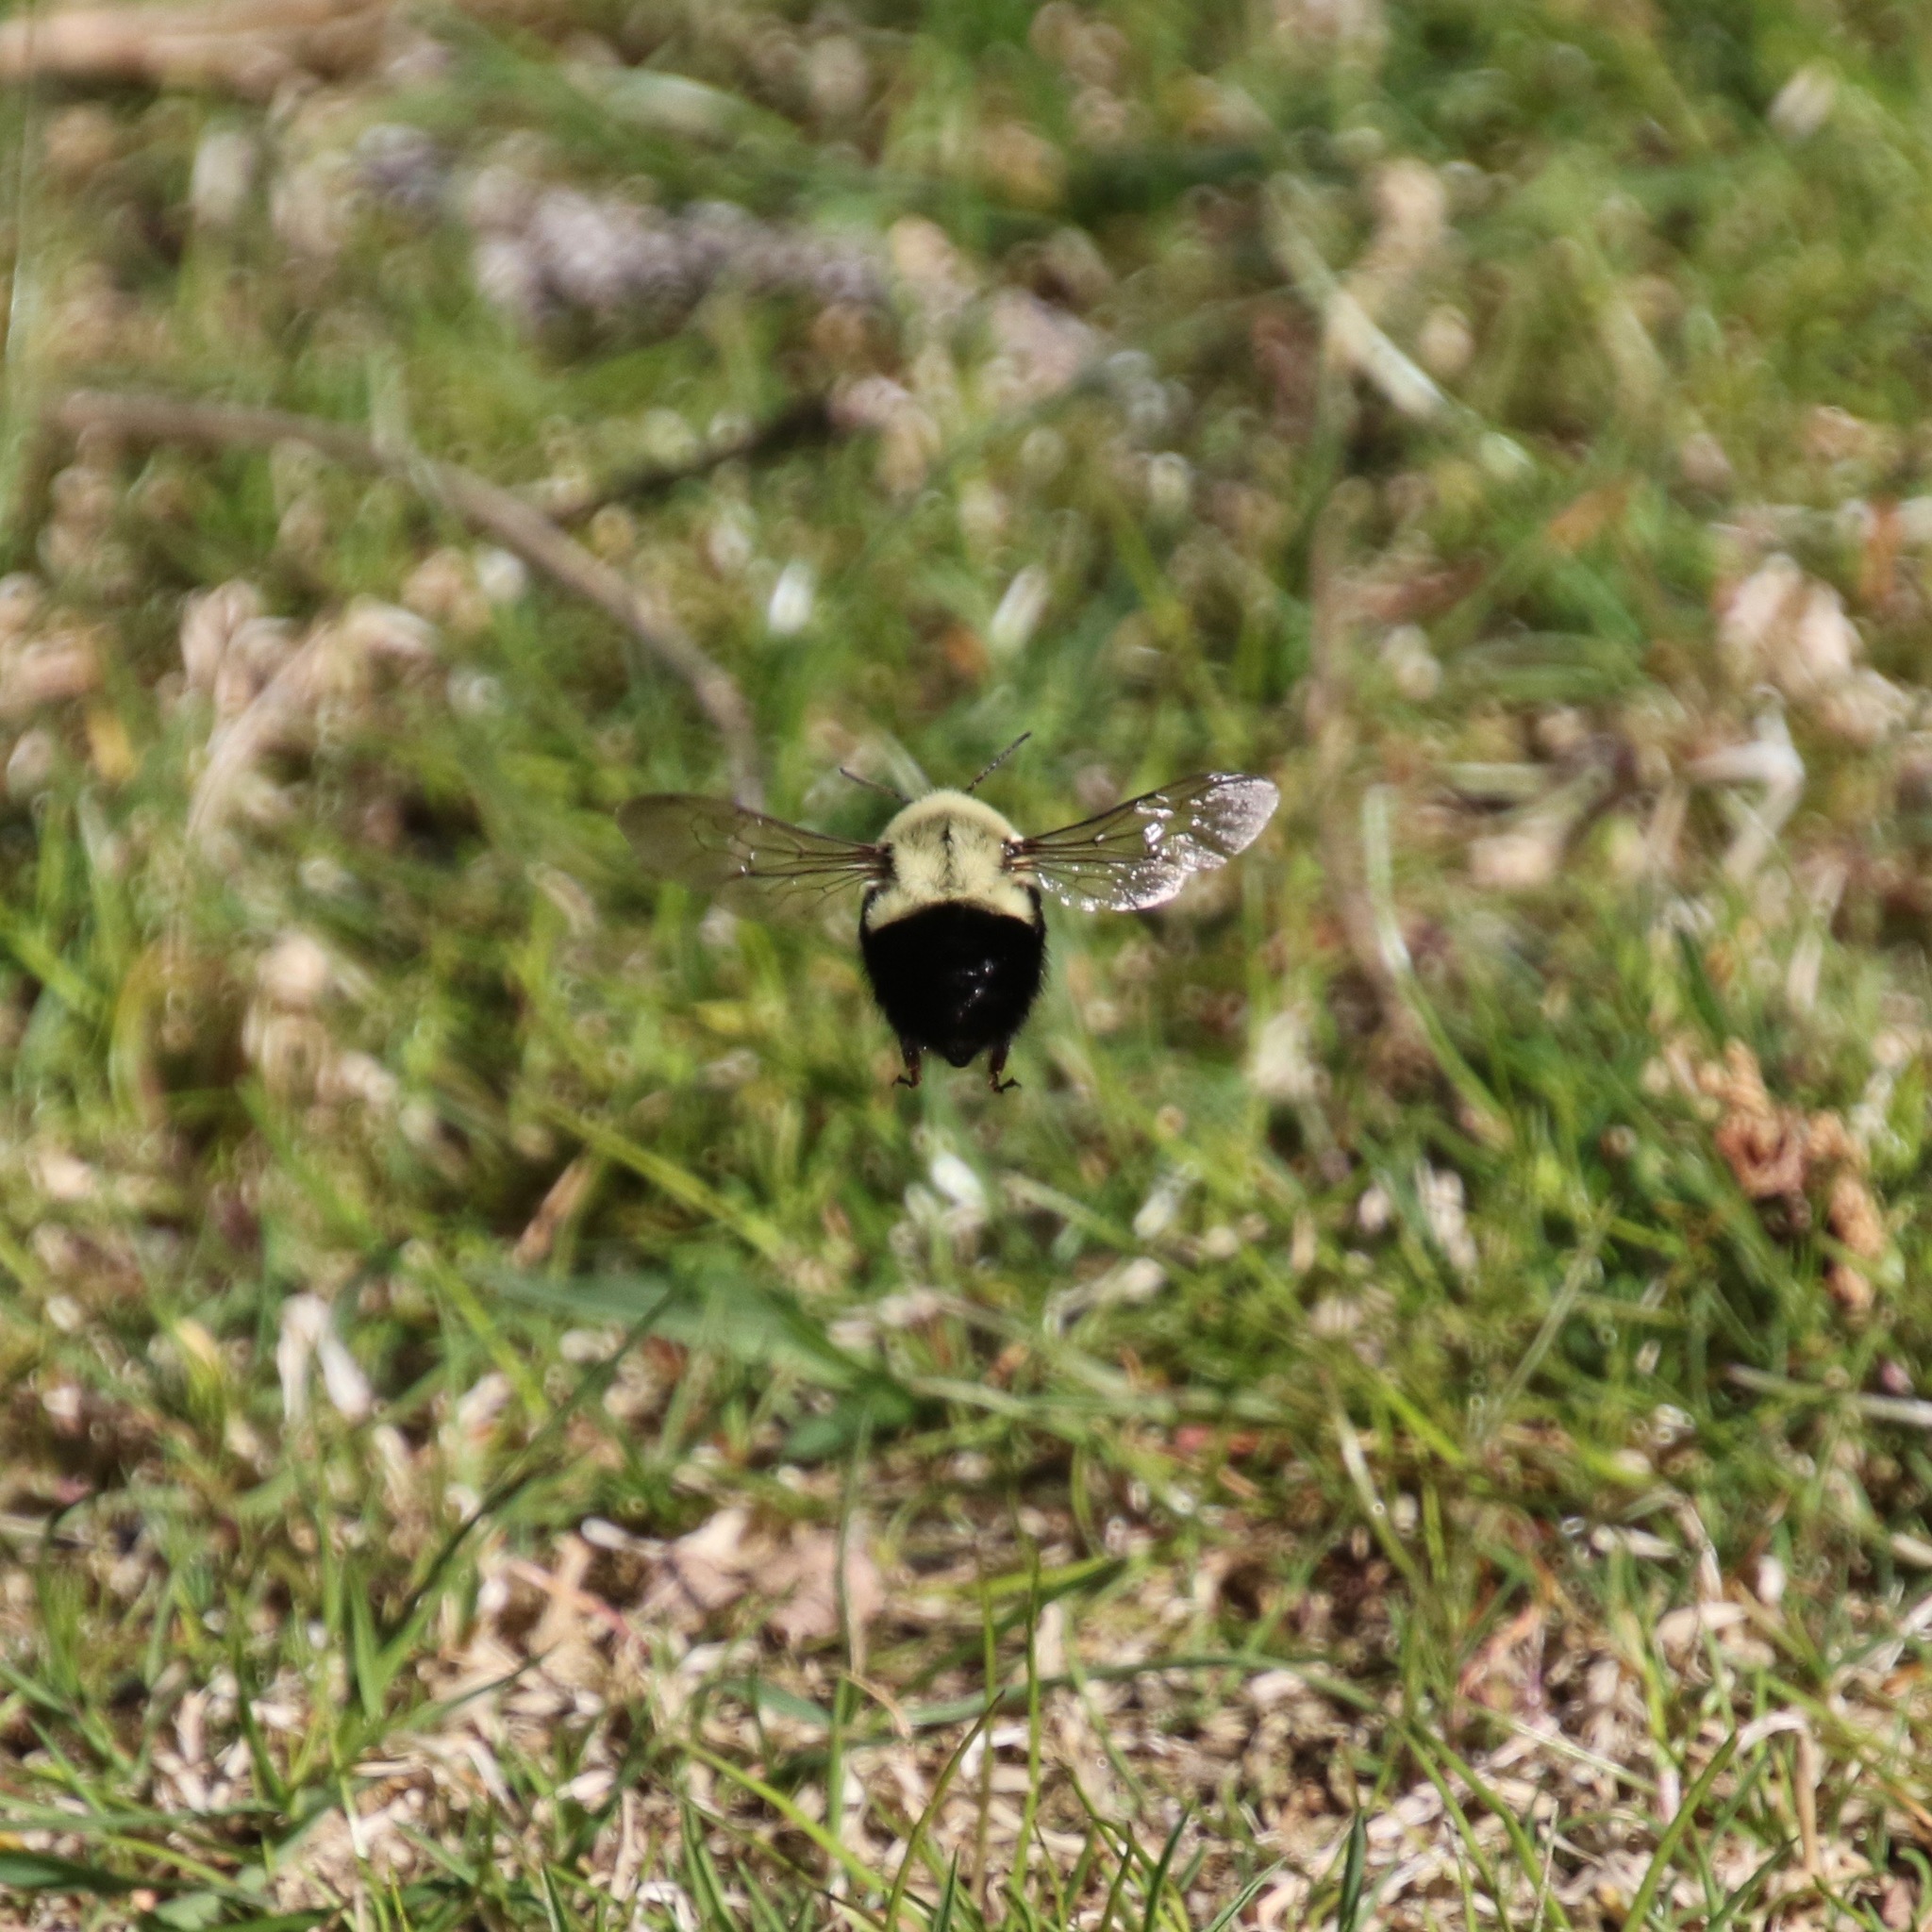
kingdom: Animalia
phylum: Arthropoda
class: Insecta
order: Hymenoptera
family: Apidae
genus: Bombus
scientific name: Bombus impatiens
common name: Common eastern bumble bee
